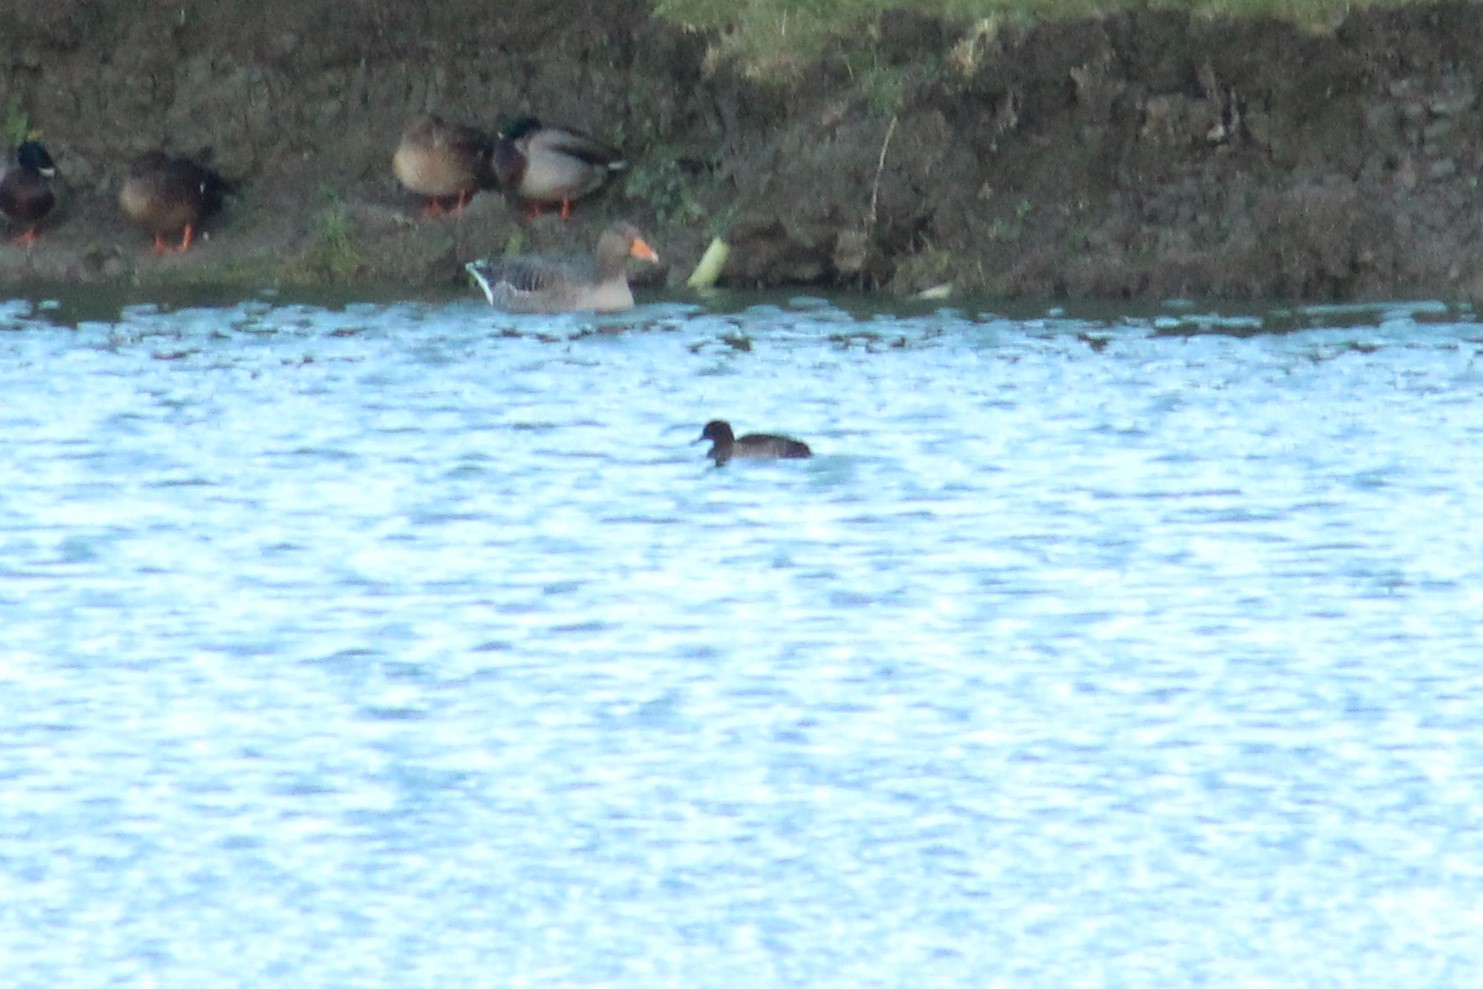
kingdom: Animalia
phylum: Chordata
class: Aves
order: Anseriformes
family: Anatidae
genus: Aythya
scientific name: Aythya fuligula
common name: Tufted duck
